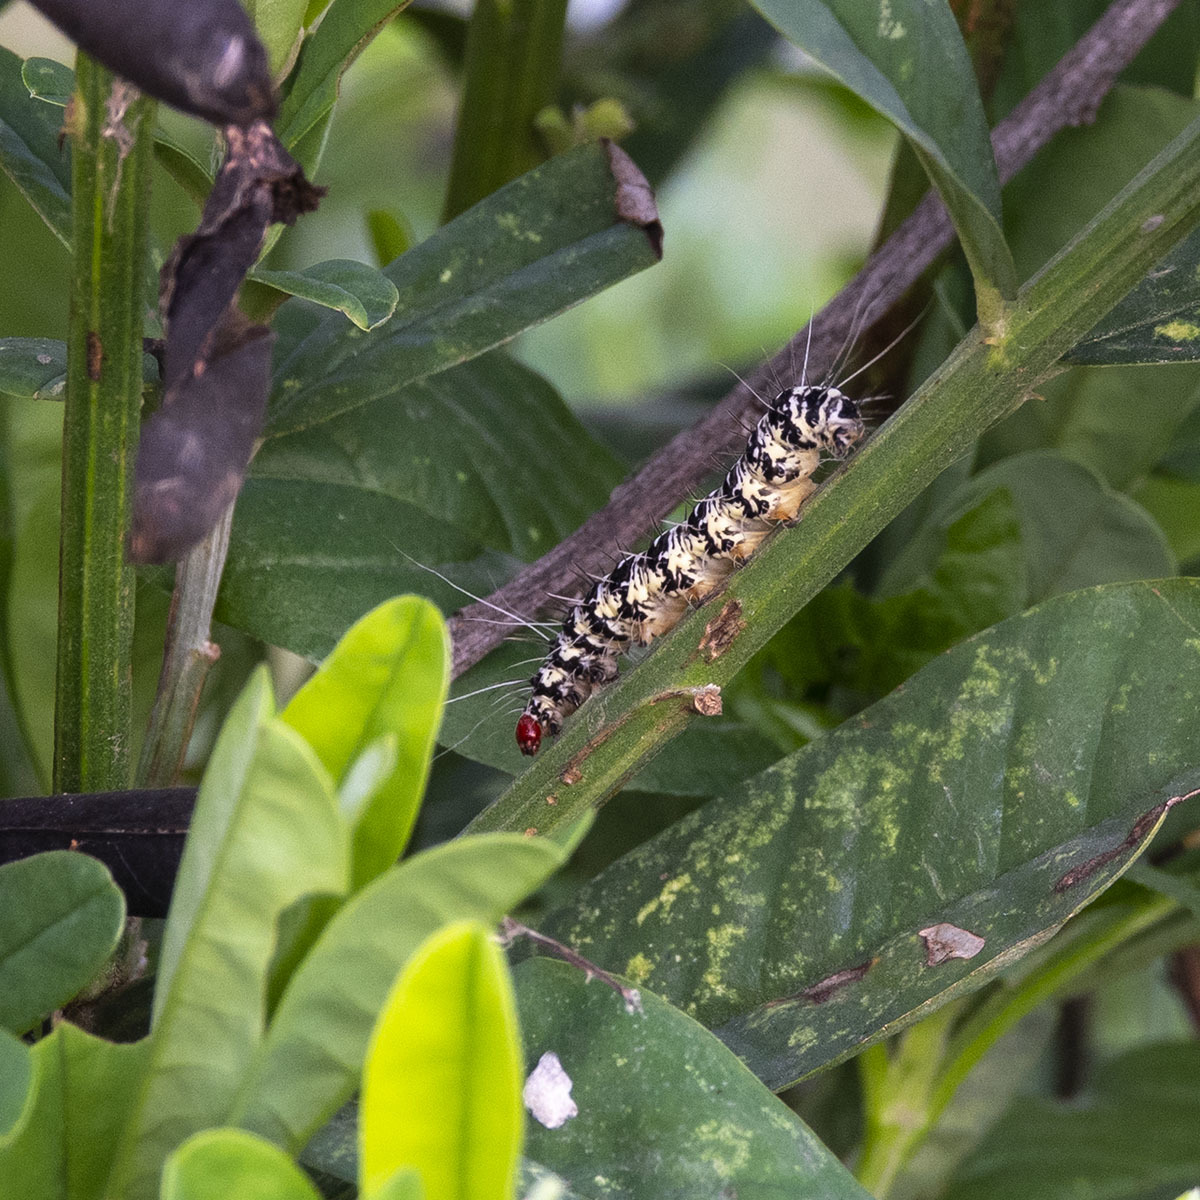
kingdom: Animalia
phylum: Arthropoda
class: Insecta
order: Lepidoptera
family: Erebidae
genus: Argina
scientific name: Argina astrea
